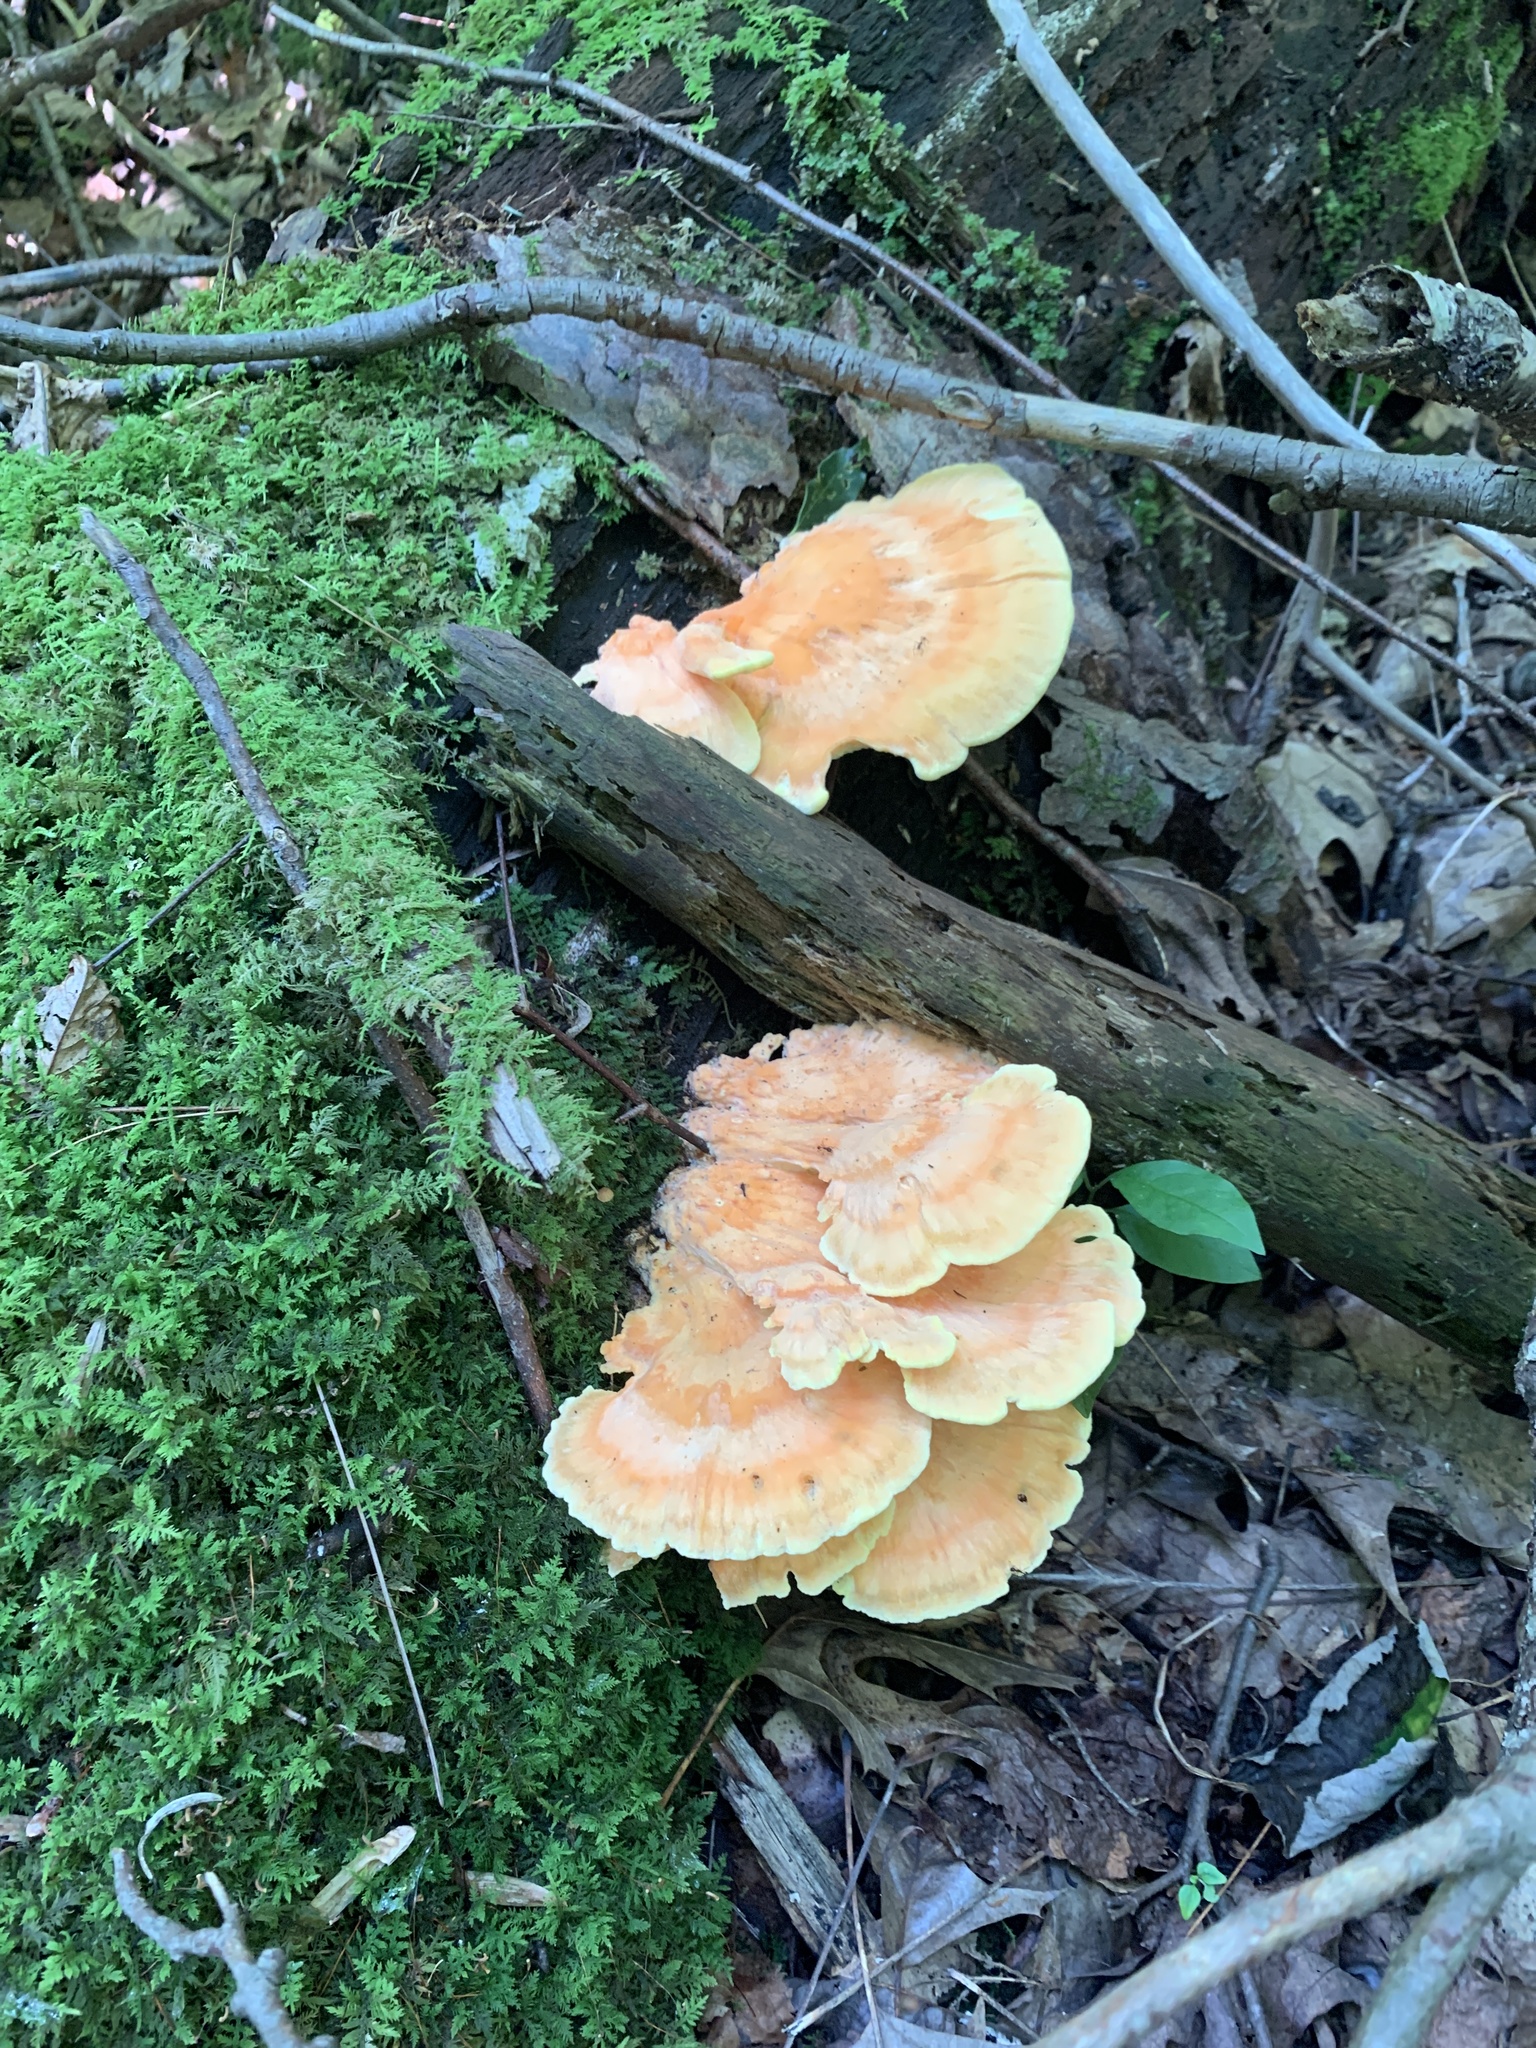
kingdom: Fungi
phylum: Basidiomycota
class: Agaricomycetes
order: Polyporales
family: Laetiporaceae
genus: Laetiporus
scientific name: Laetiporus sulphureus
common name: Chicken of the woods
